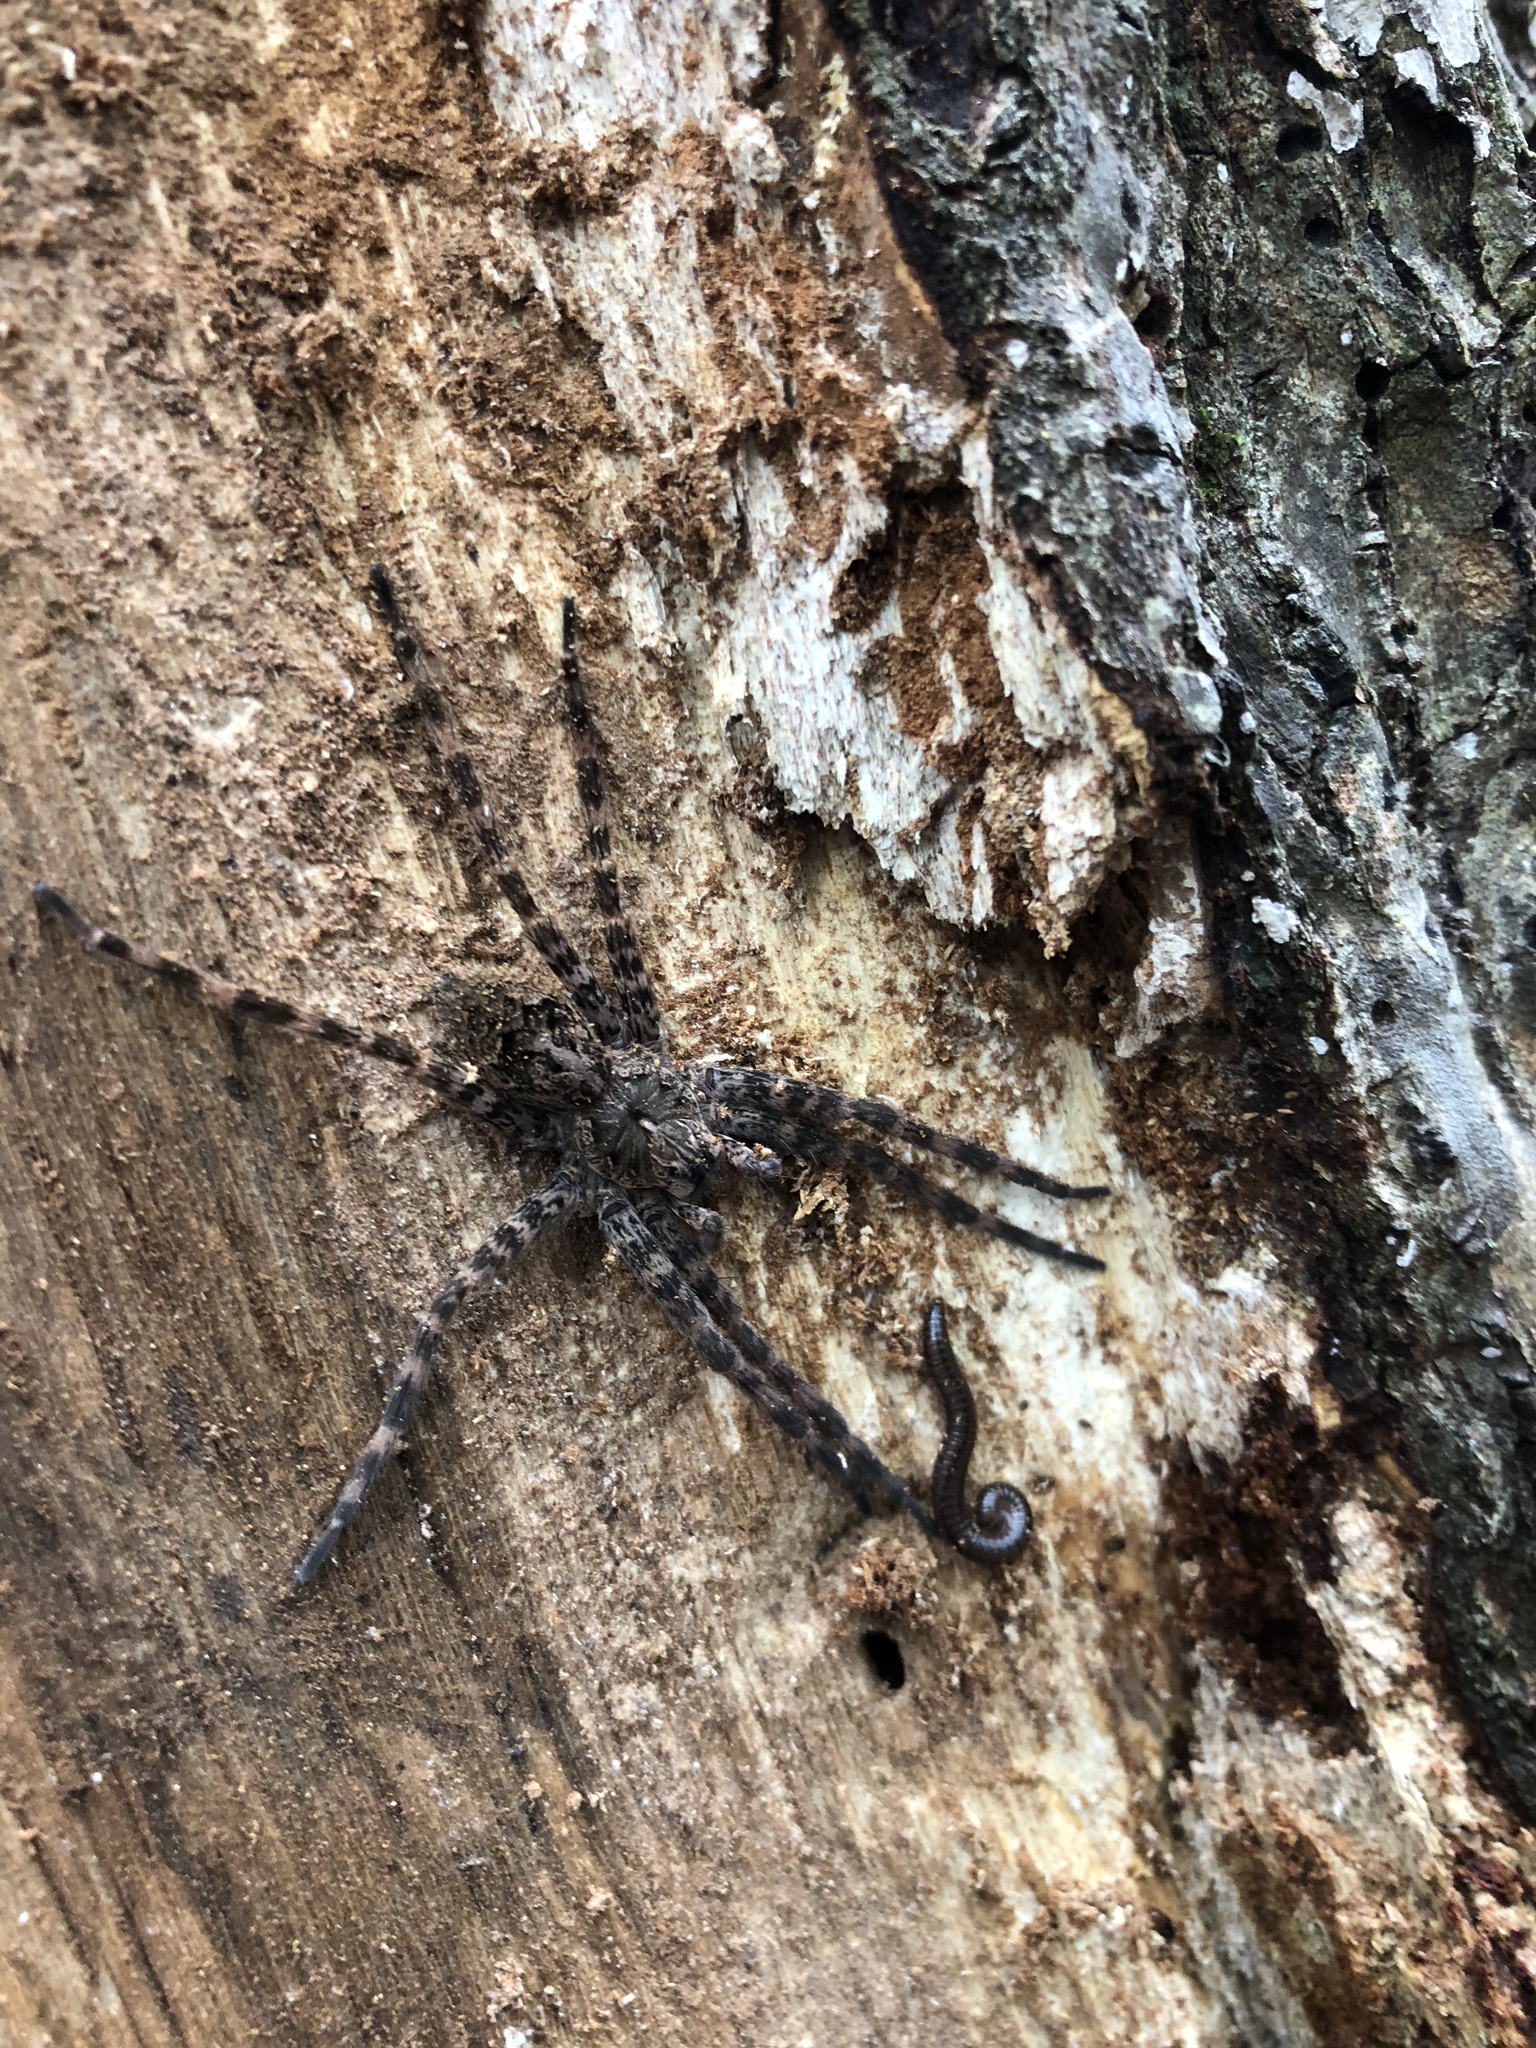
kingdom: Animalia
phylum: Arthropoda
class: Arachnida
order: Araneae
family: Pisauridae
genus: Dolomedes
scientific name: Dolomedes tenebrosus
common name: Dark fishing spider
